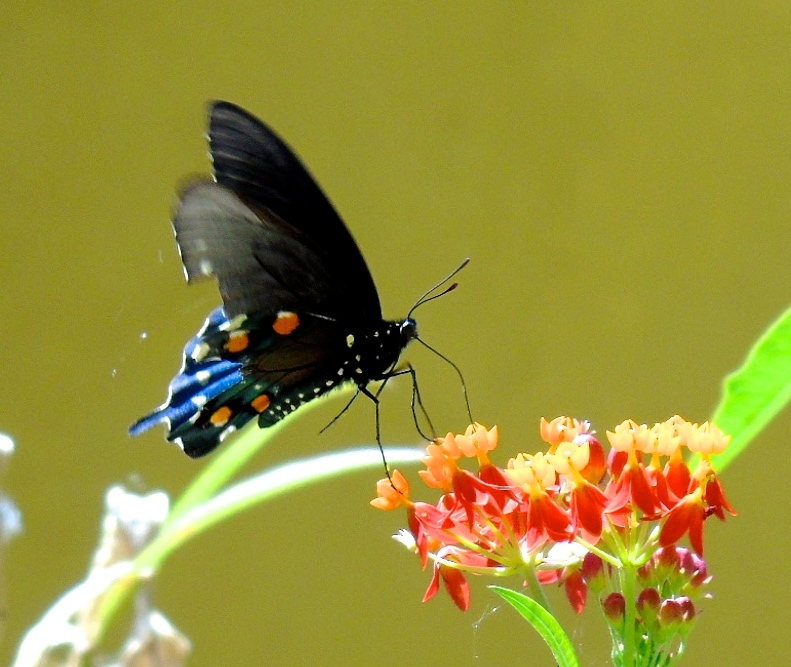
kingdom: Animalia
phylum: Arthropoda
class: Insecta
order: Lepidoptera
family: Papilionidae
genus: Battus
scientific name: Battus philenor
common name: Pipevine swallowtail
